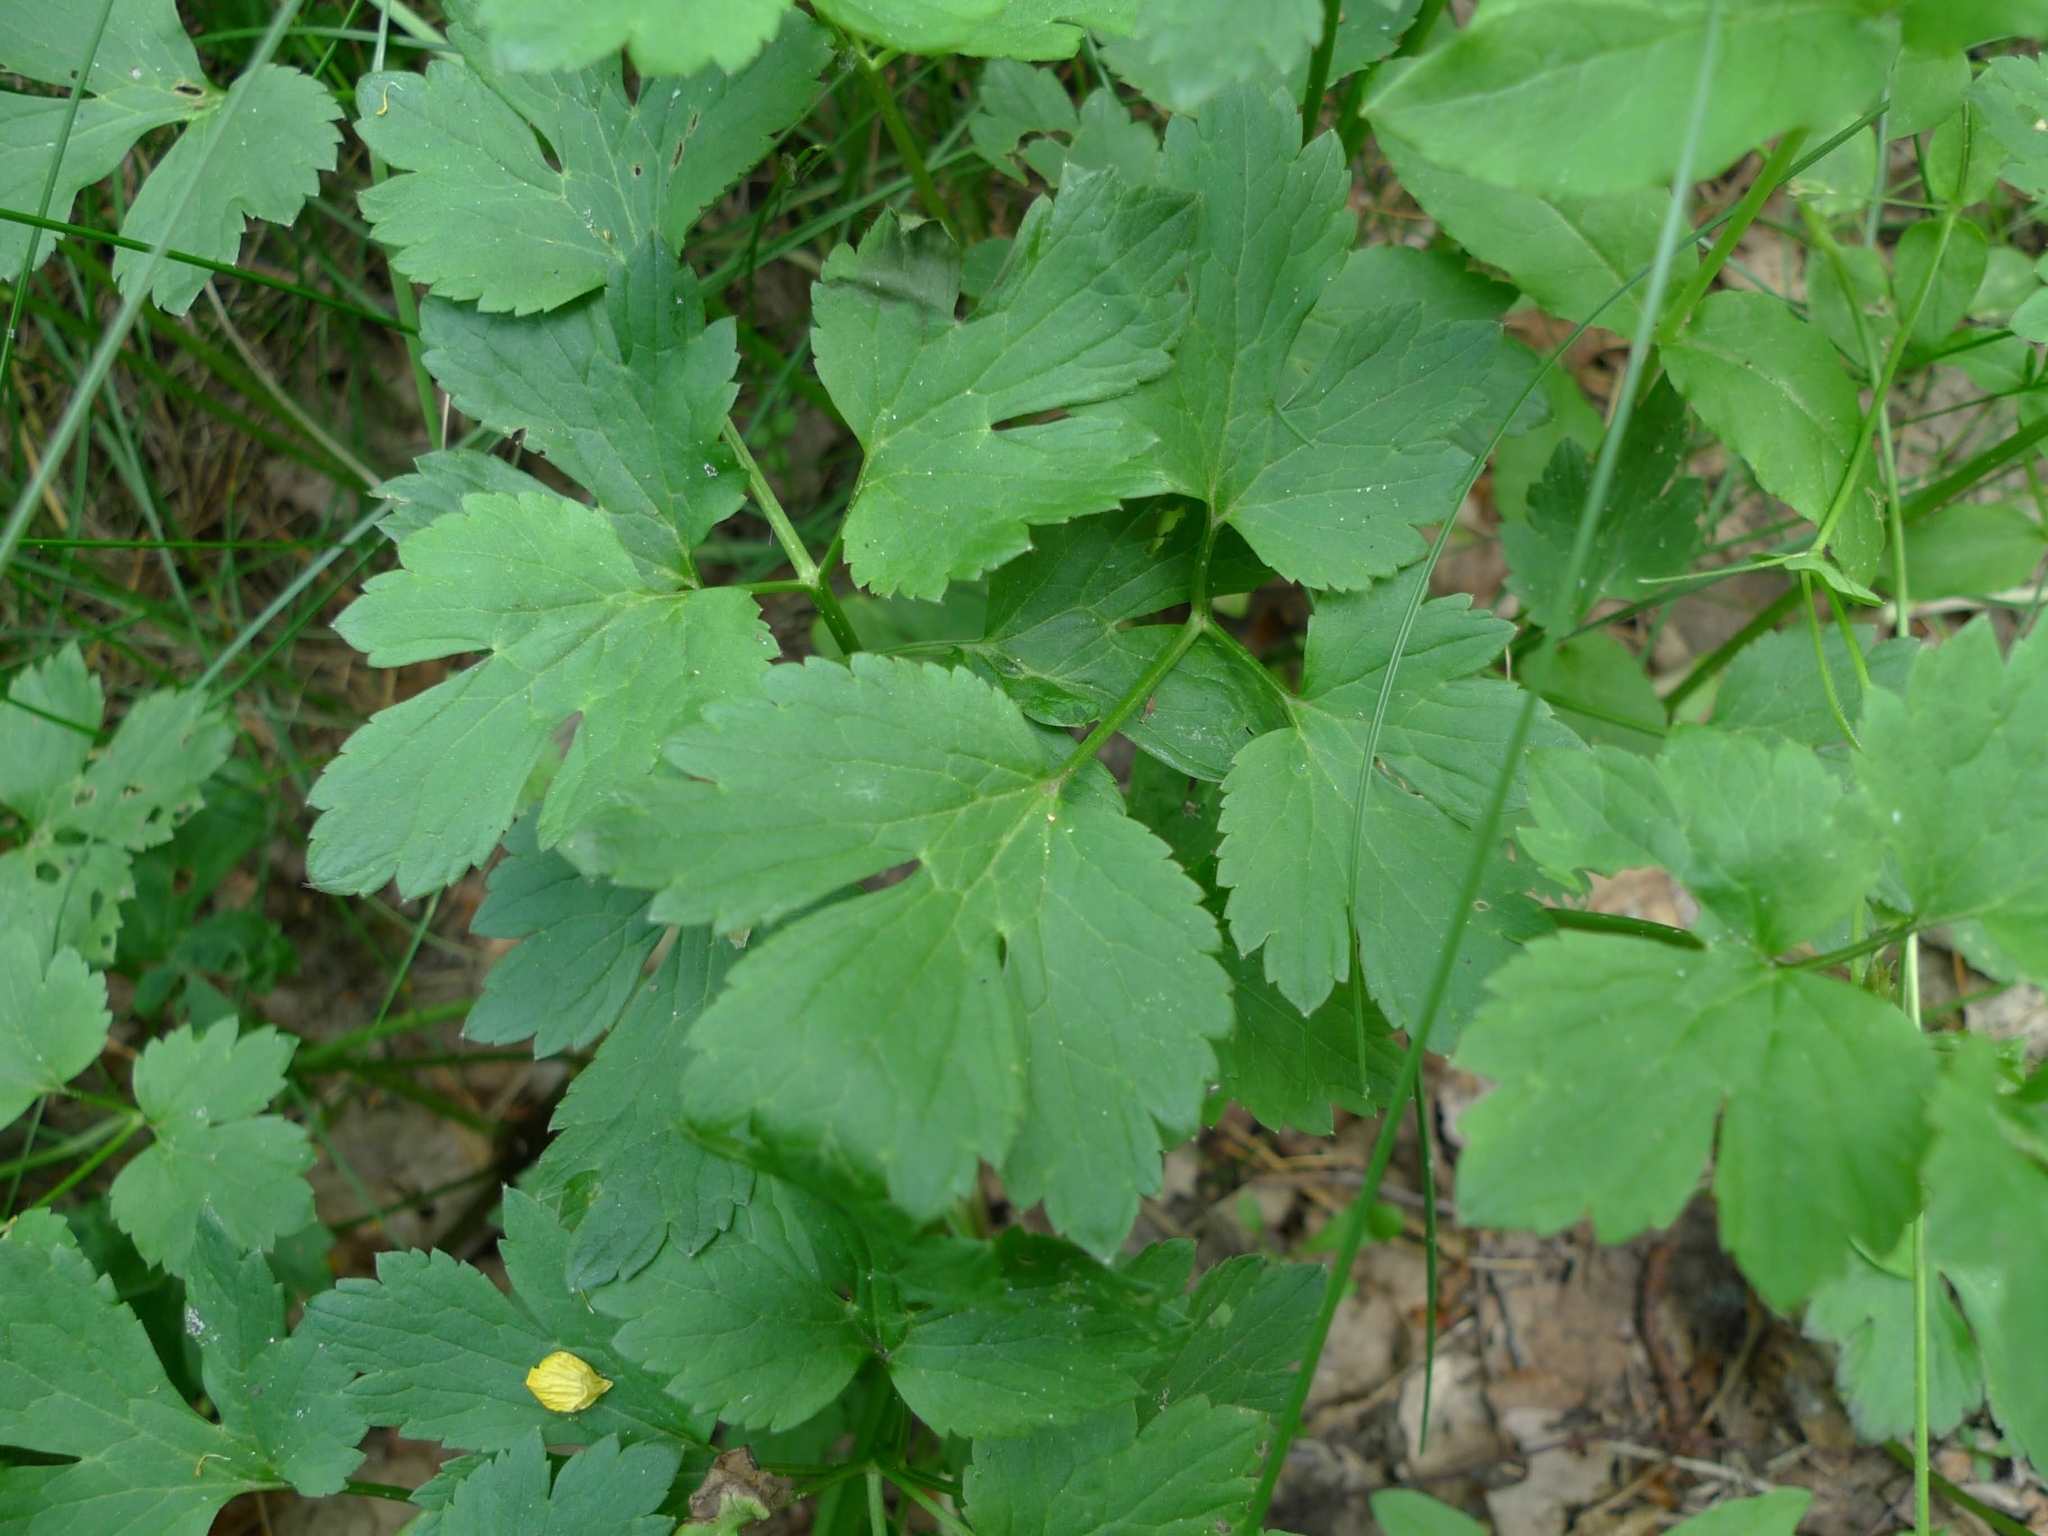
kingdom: Plantae
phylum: Tracheophyta
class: Magnoliopsida
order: Ranunculales
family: Ranunculaceae
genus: Ranunculus
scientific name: Ranunculus repens
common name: Creeping buttercup
